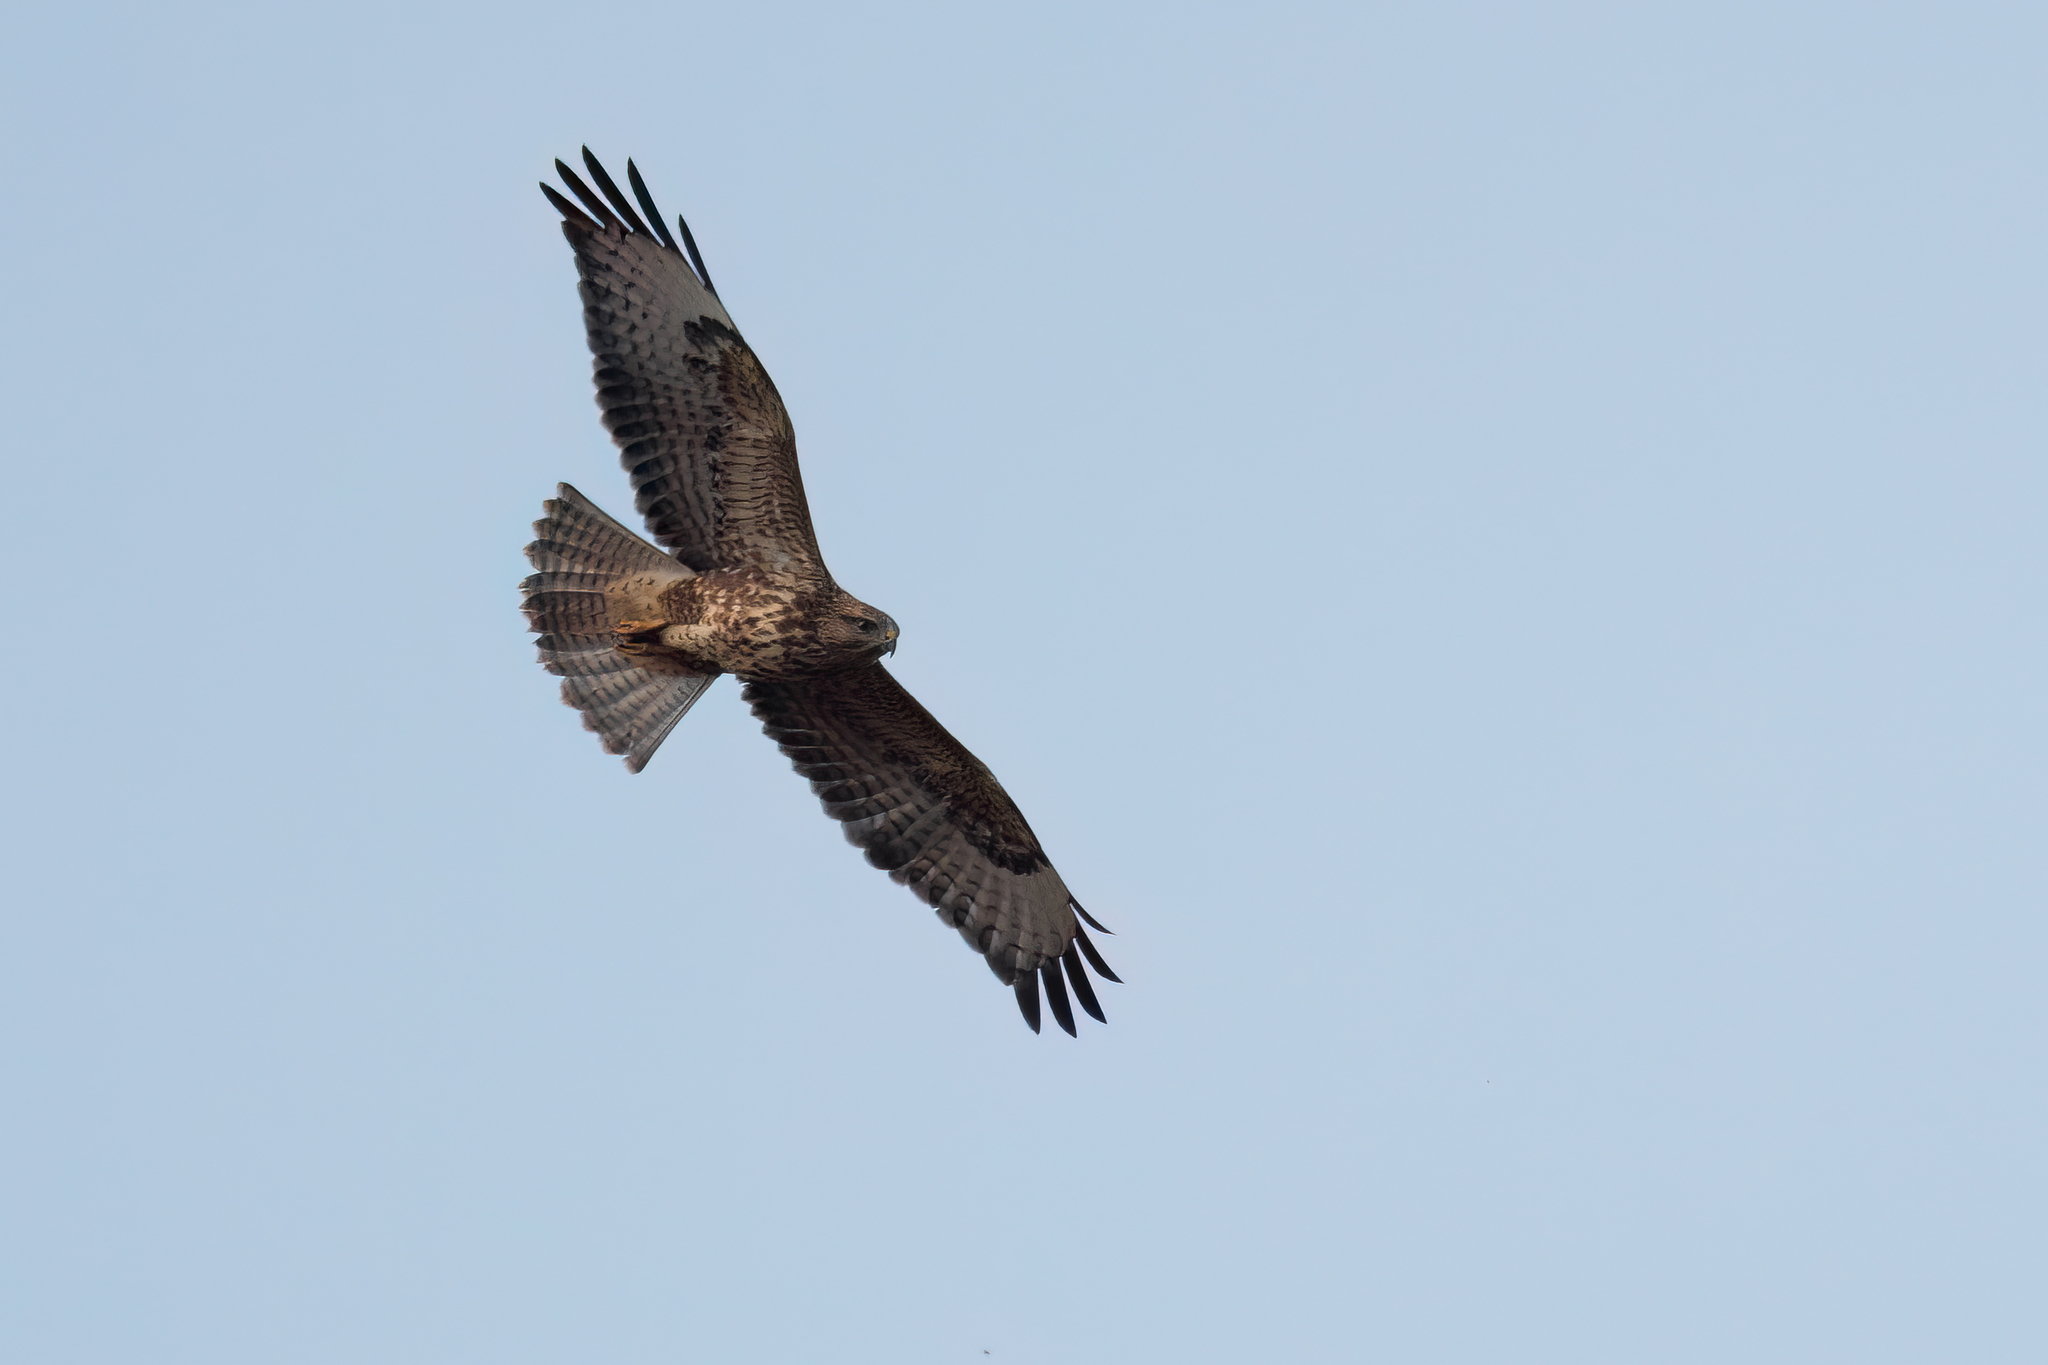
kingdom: Animalia
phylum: Chordata
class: Aves
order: Accipitriformes
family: Accipitridae
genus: Buteo
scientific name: Buteo buteo
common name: Common buzzard
